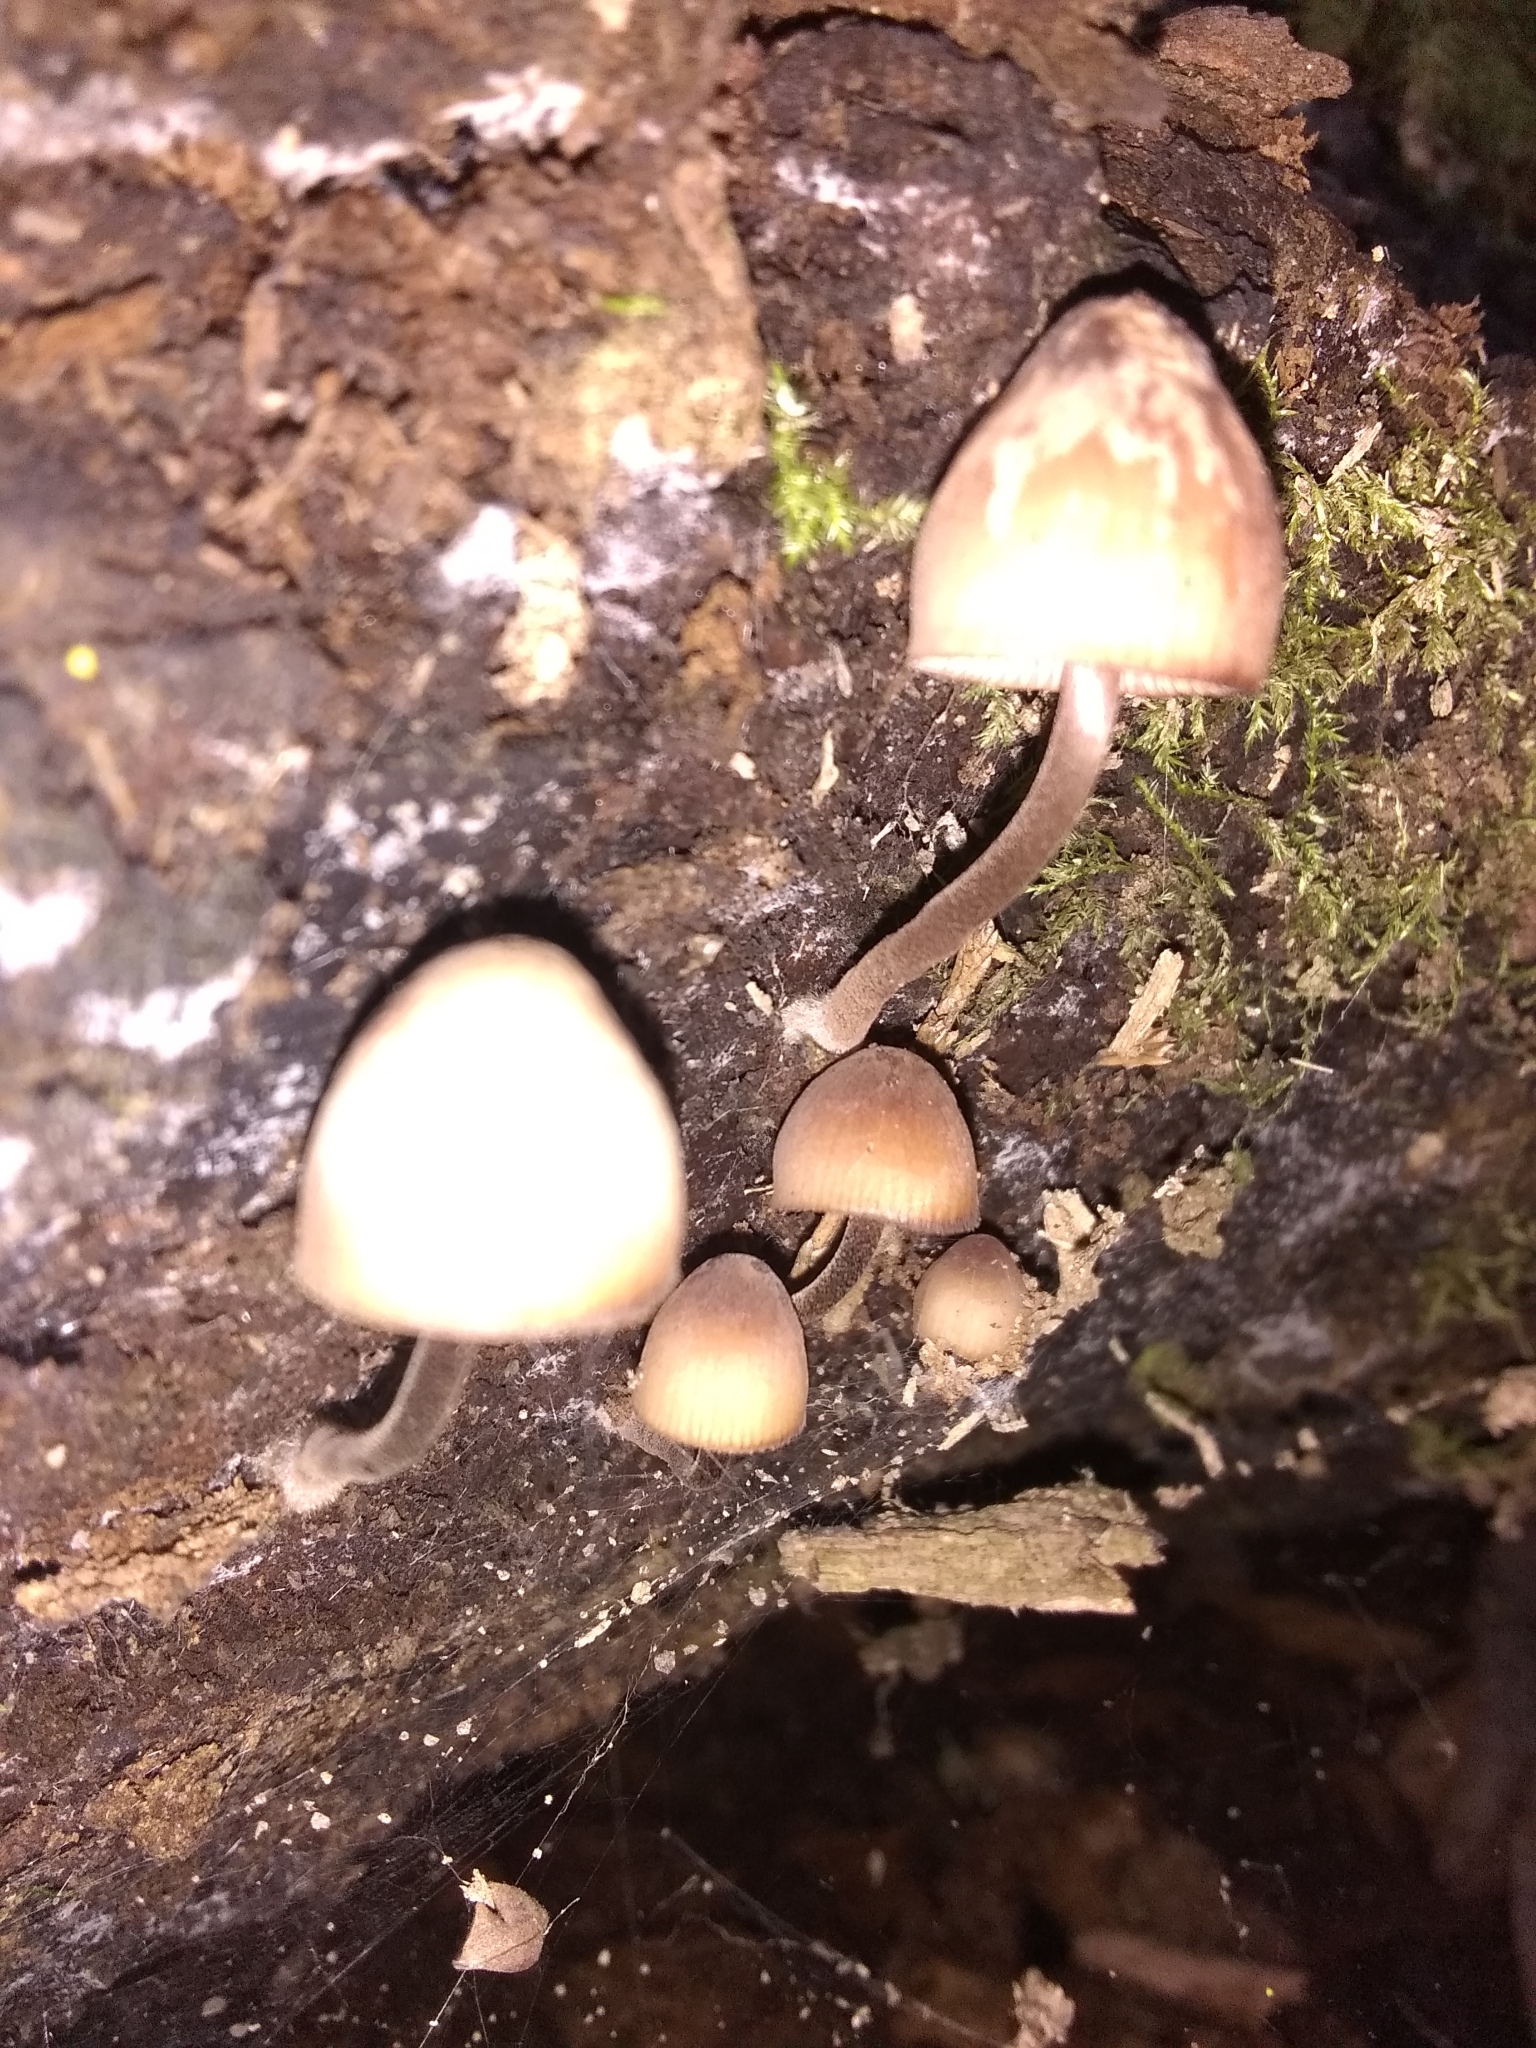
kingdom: Fungi
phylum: Basidiomycota
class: Agaricomycetes
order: Agaricales
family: Mycenaceae
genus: Mycena
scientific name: Mycena haematopus
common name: Burgundydrop bonnet
